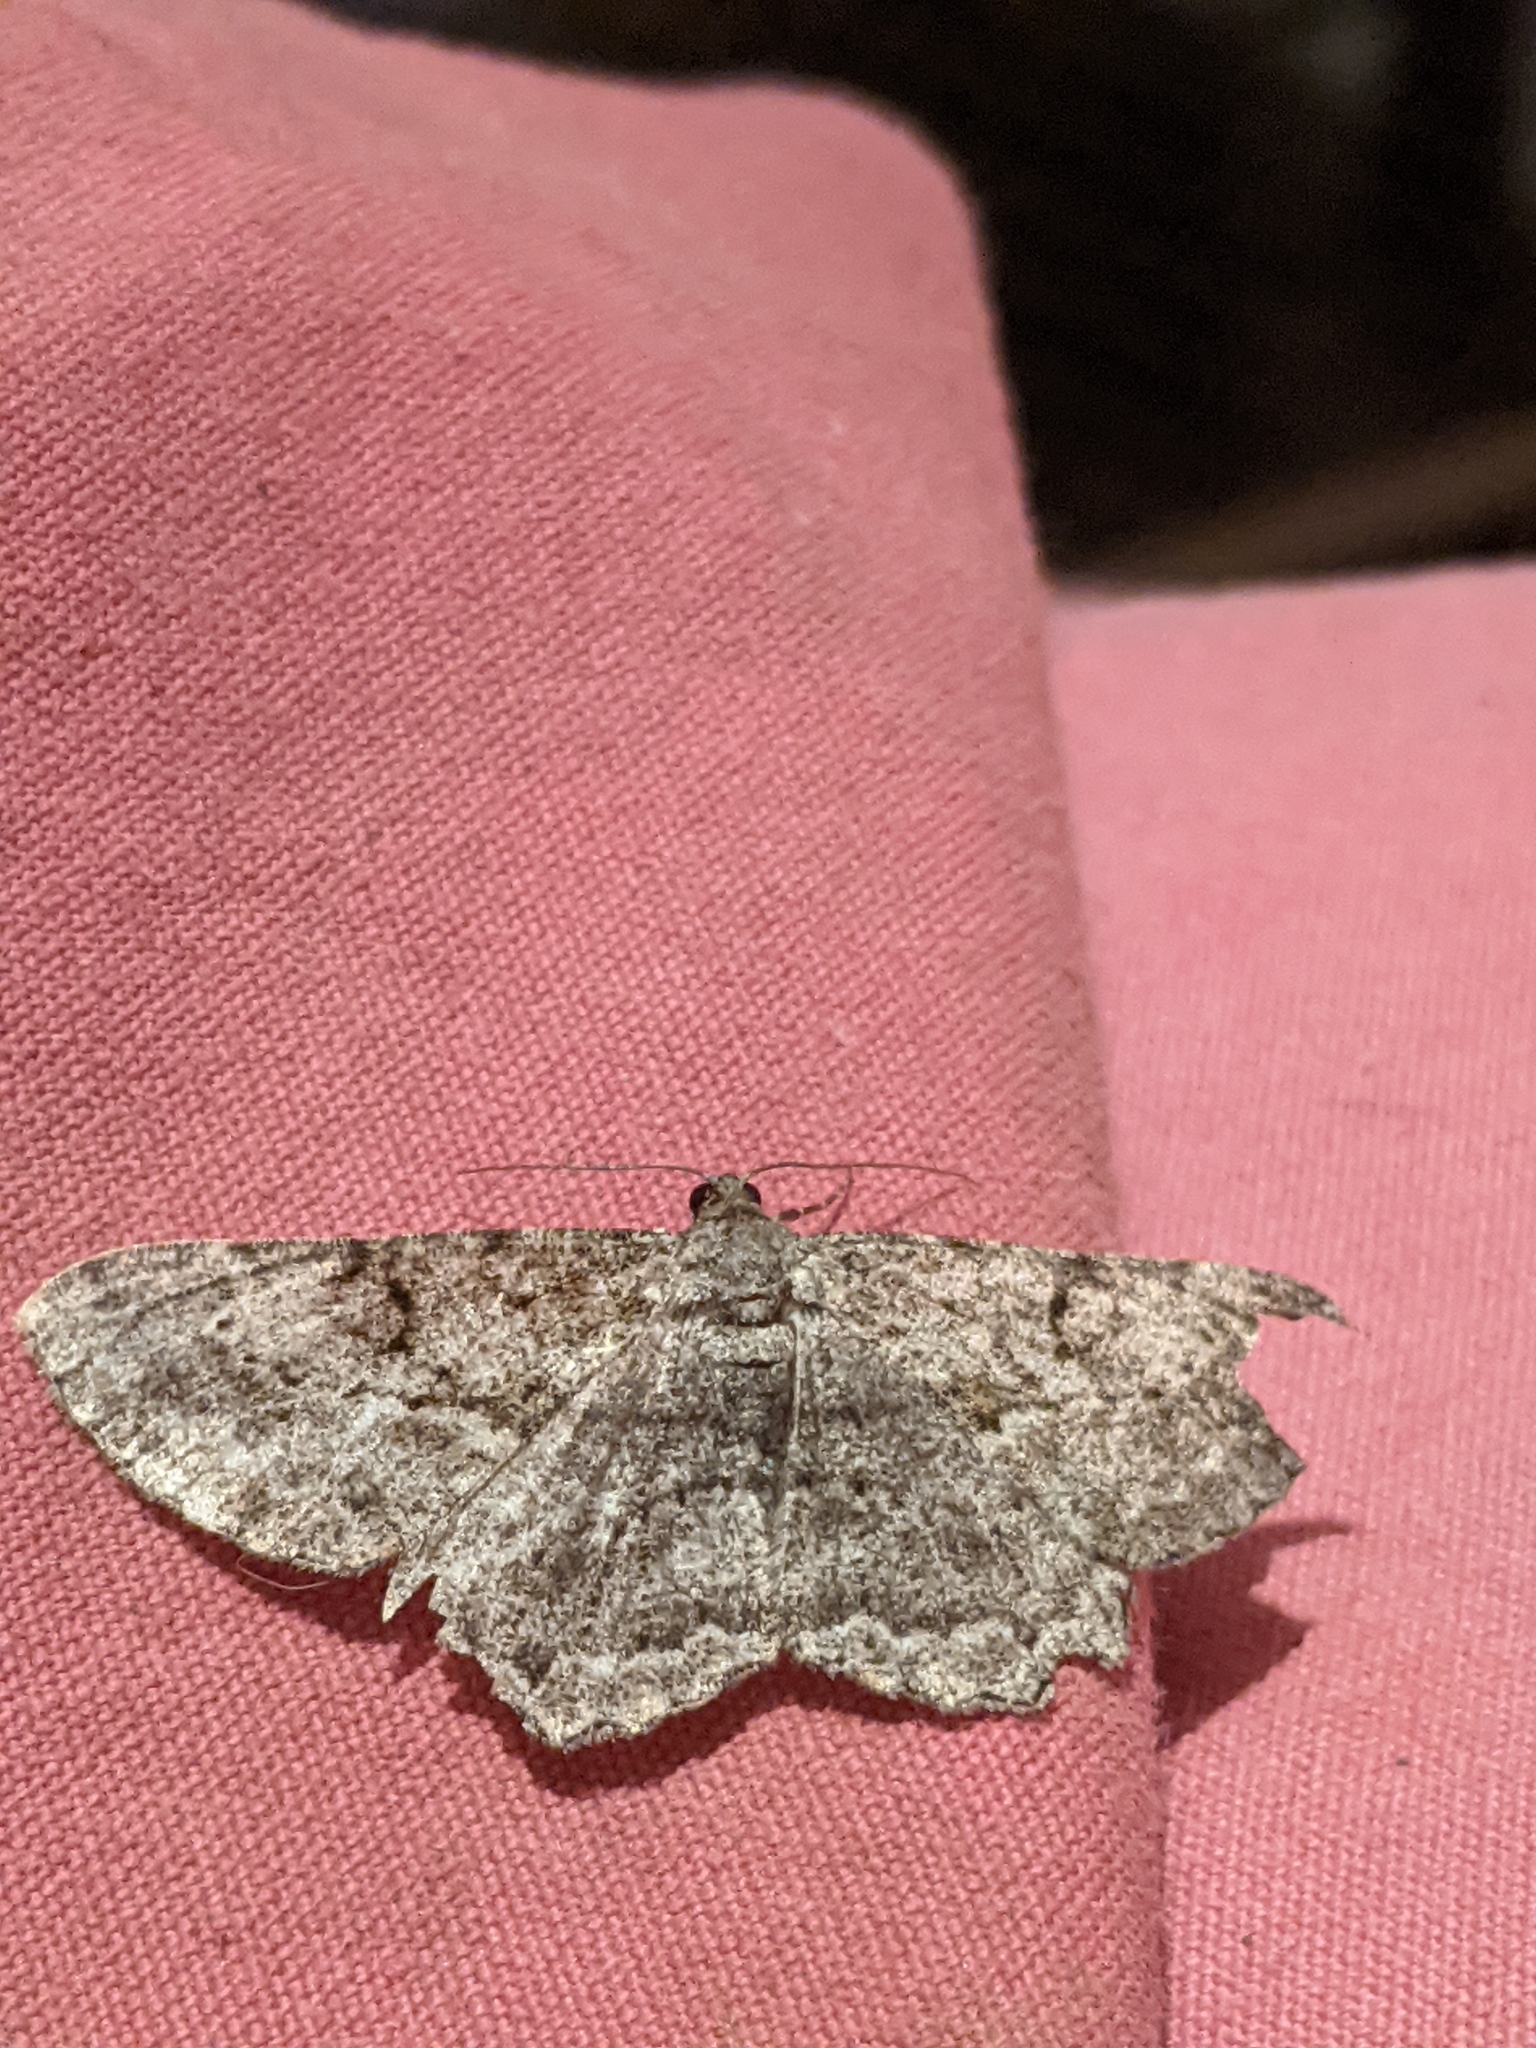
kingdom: Animalia
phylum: Arthropoda
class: Insecta
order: Lepidoptera
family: Geometridae
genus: Peribatodes
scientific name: Peribatodes rhomboidaria
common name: Willow beauty
